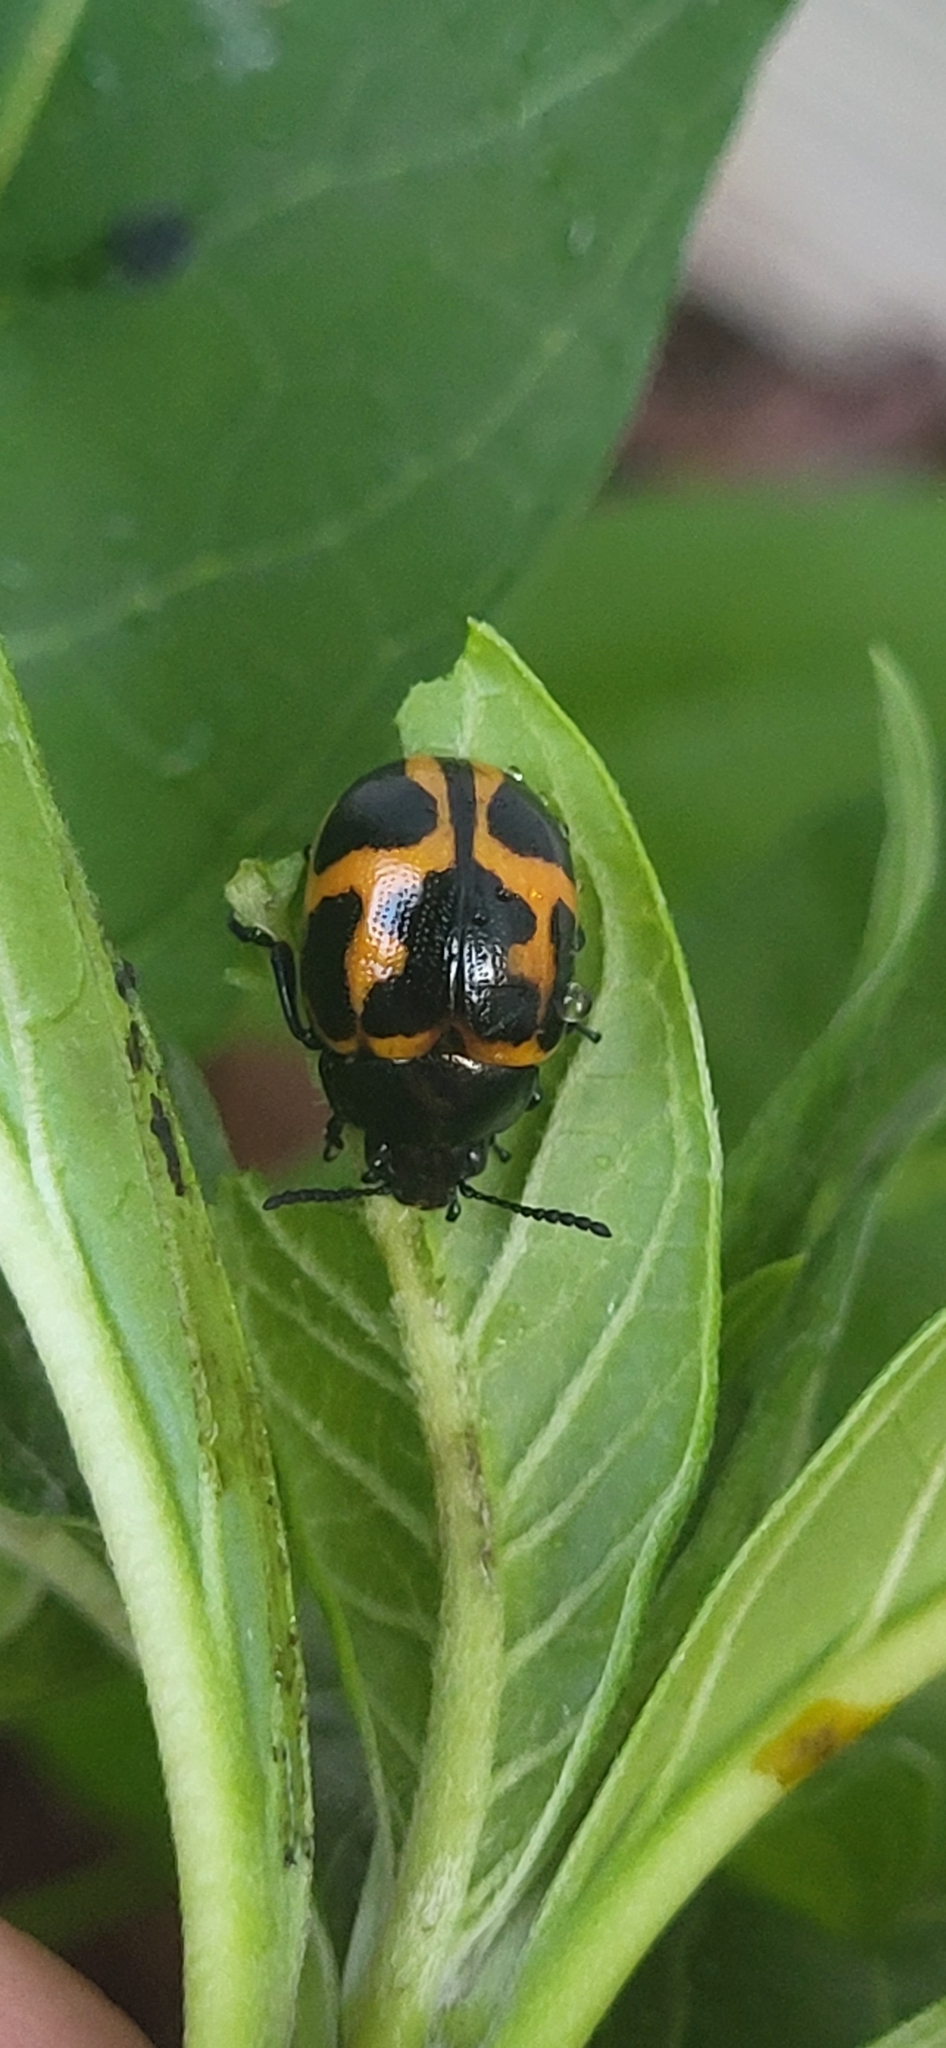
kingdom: Animalia
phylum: Arthropoda
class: Insecta
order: Coleoptera
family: Chrysomelidae
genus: Labidomera
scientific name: Labidomera clivicollis
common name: Swamp milkweed leaf beetle
